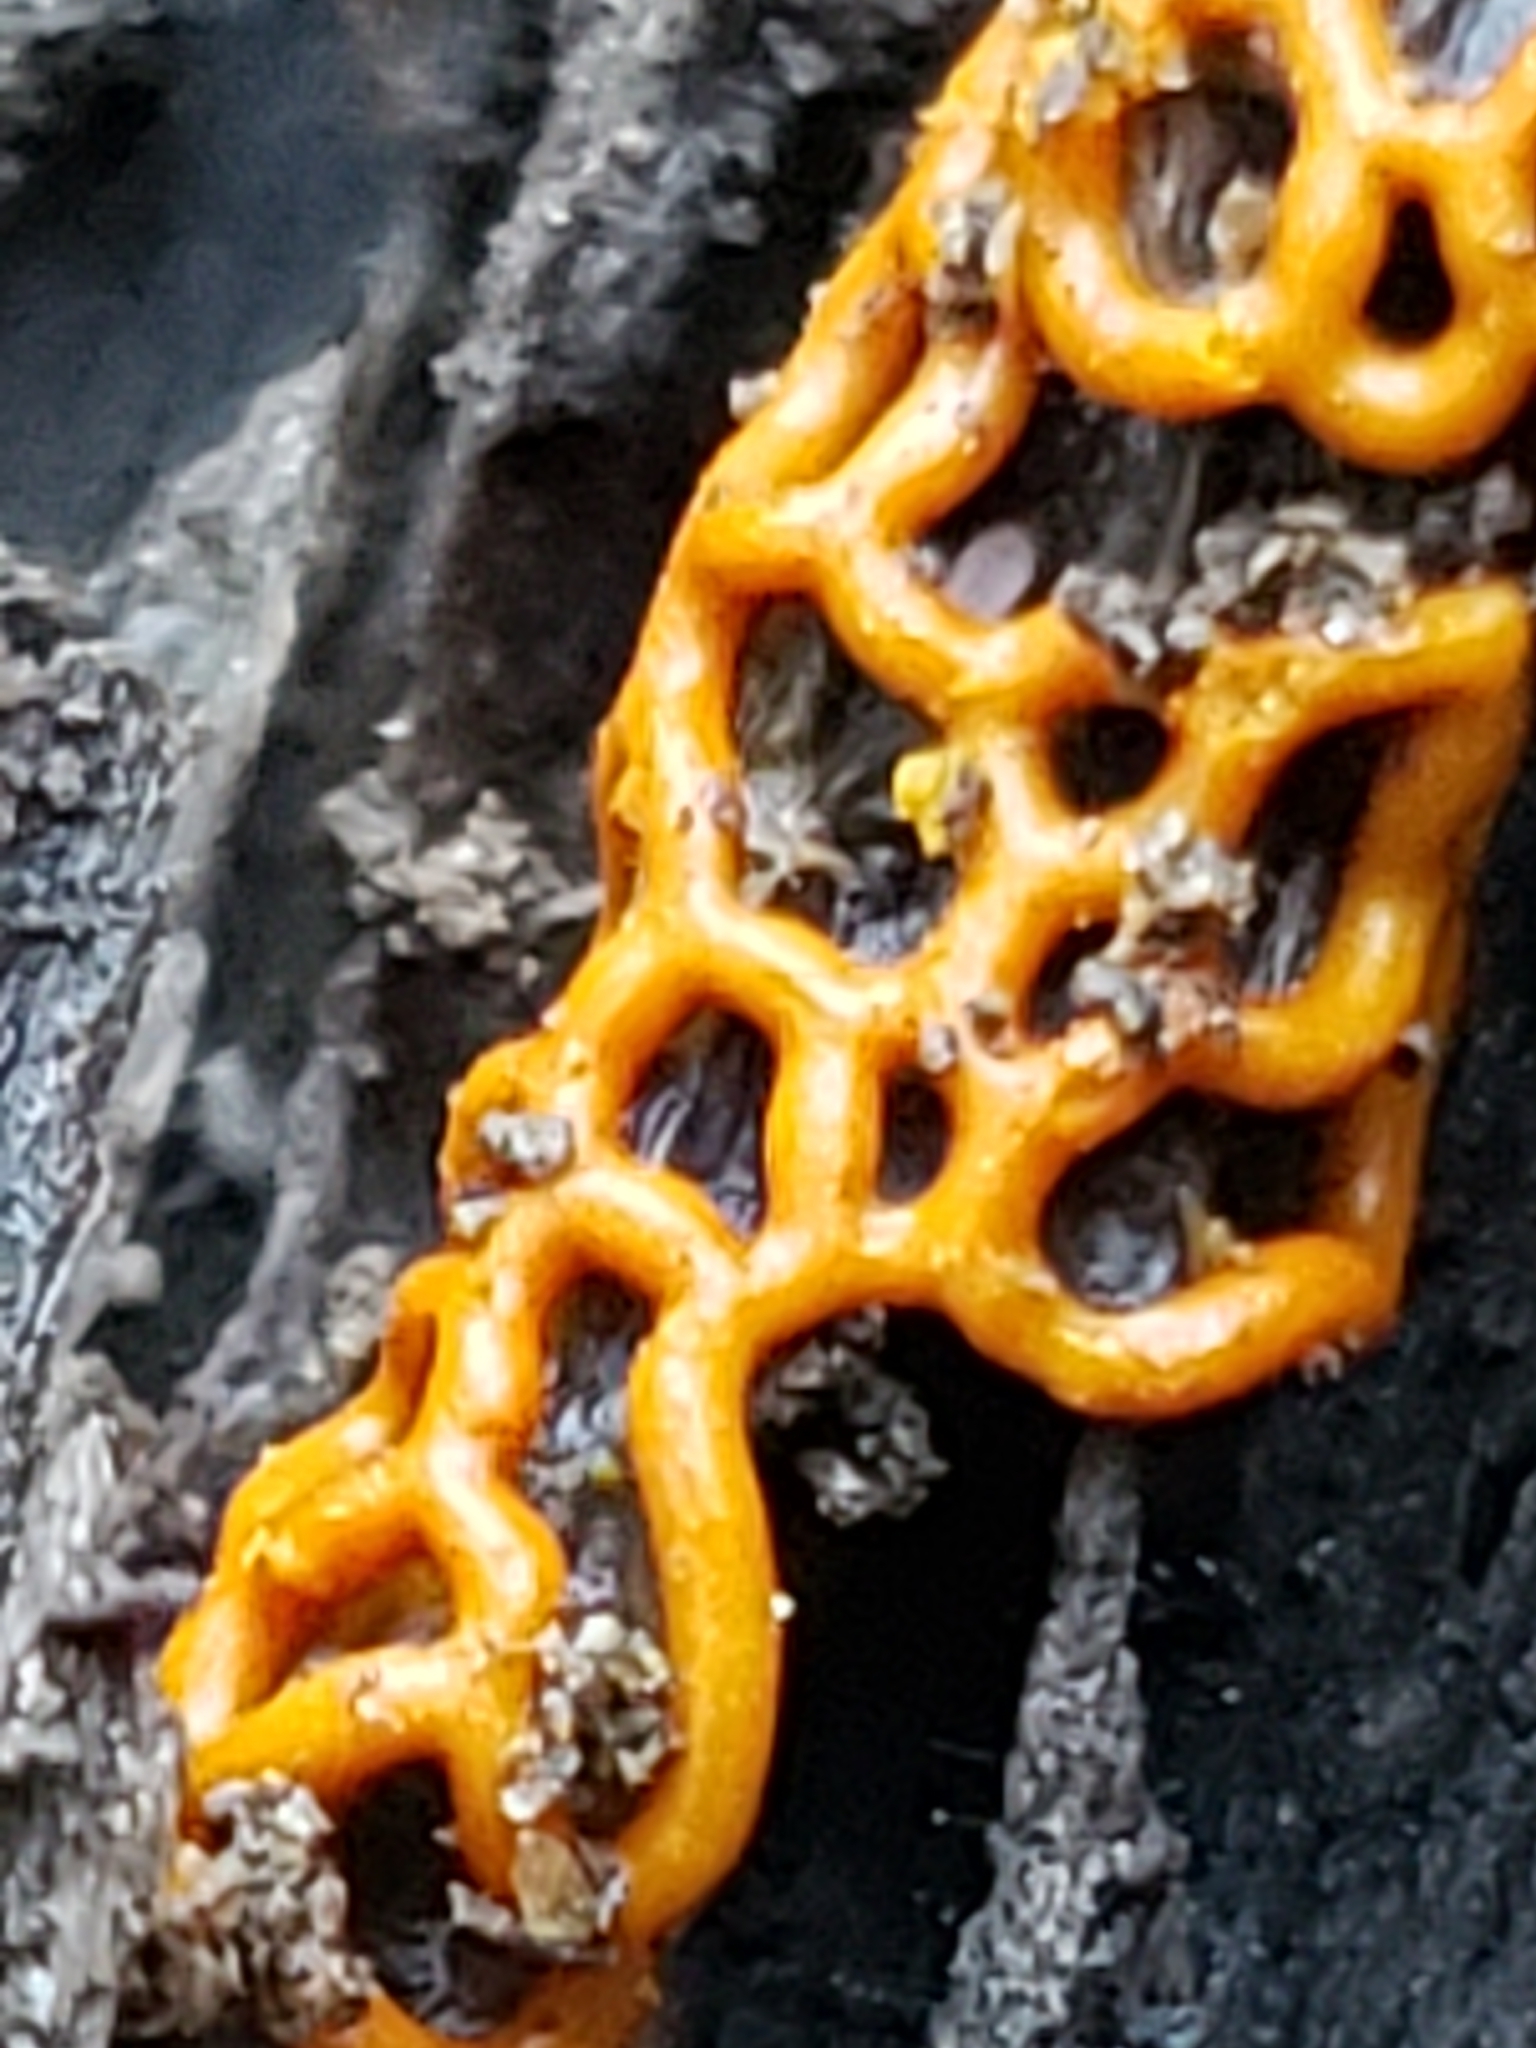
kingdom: Protozoa
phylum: Mycetozoa
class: Myxomycetes
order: Trichiales
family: Arcyriaceae
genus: Hemitrichia
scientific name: Hemitrichia serpula
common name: Pretzel slime mold
